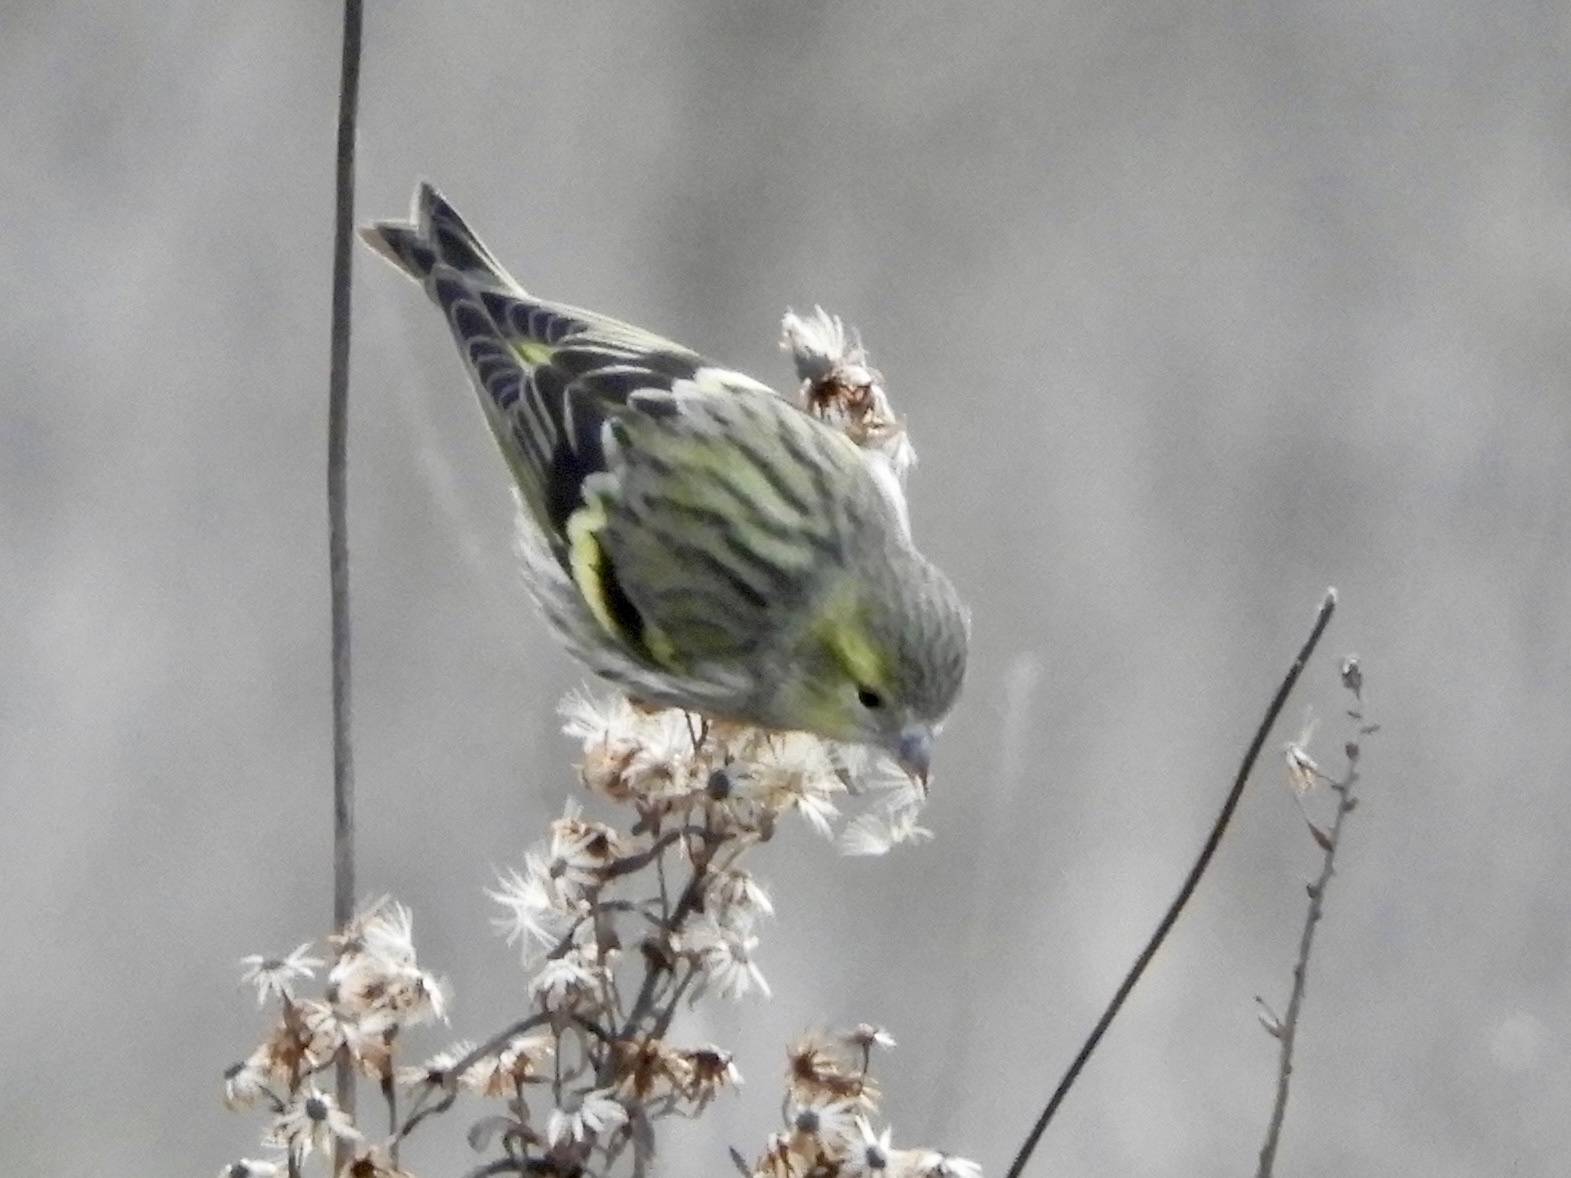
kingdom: Animalia
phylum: Chordata
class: Aves
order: Passeriformes
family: Fringillidae
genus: Spinus
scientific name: Spinus spinus
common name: Eurasian siskin
